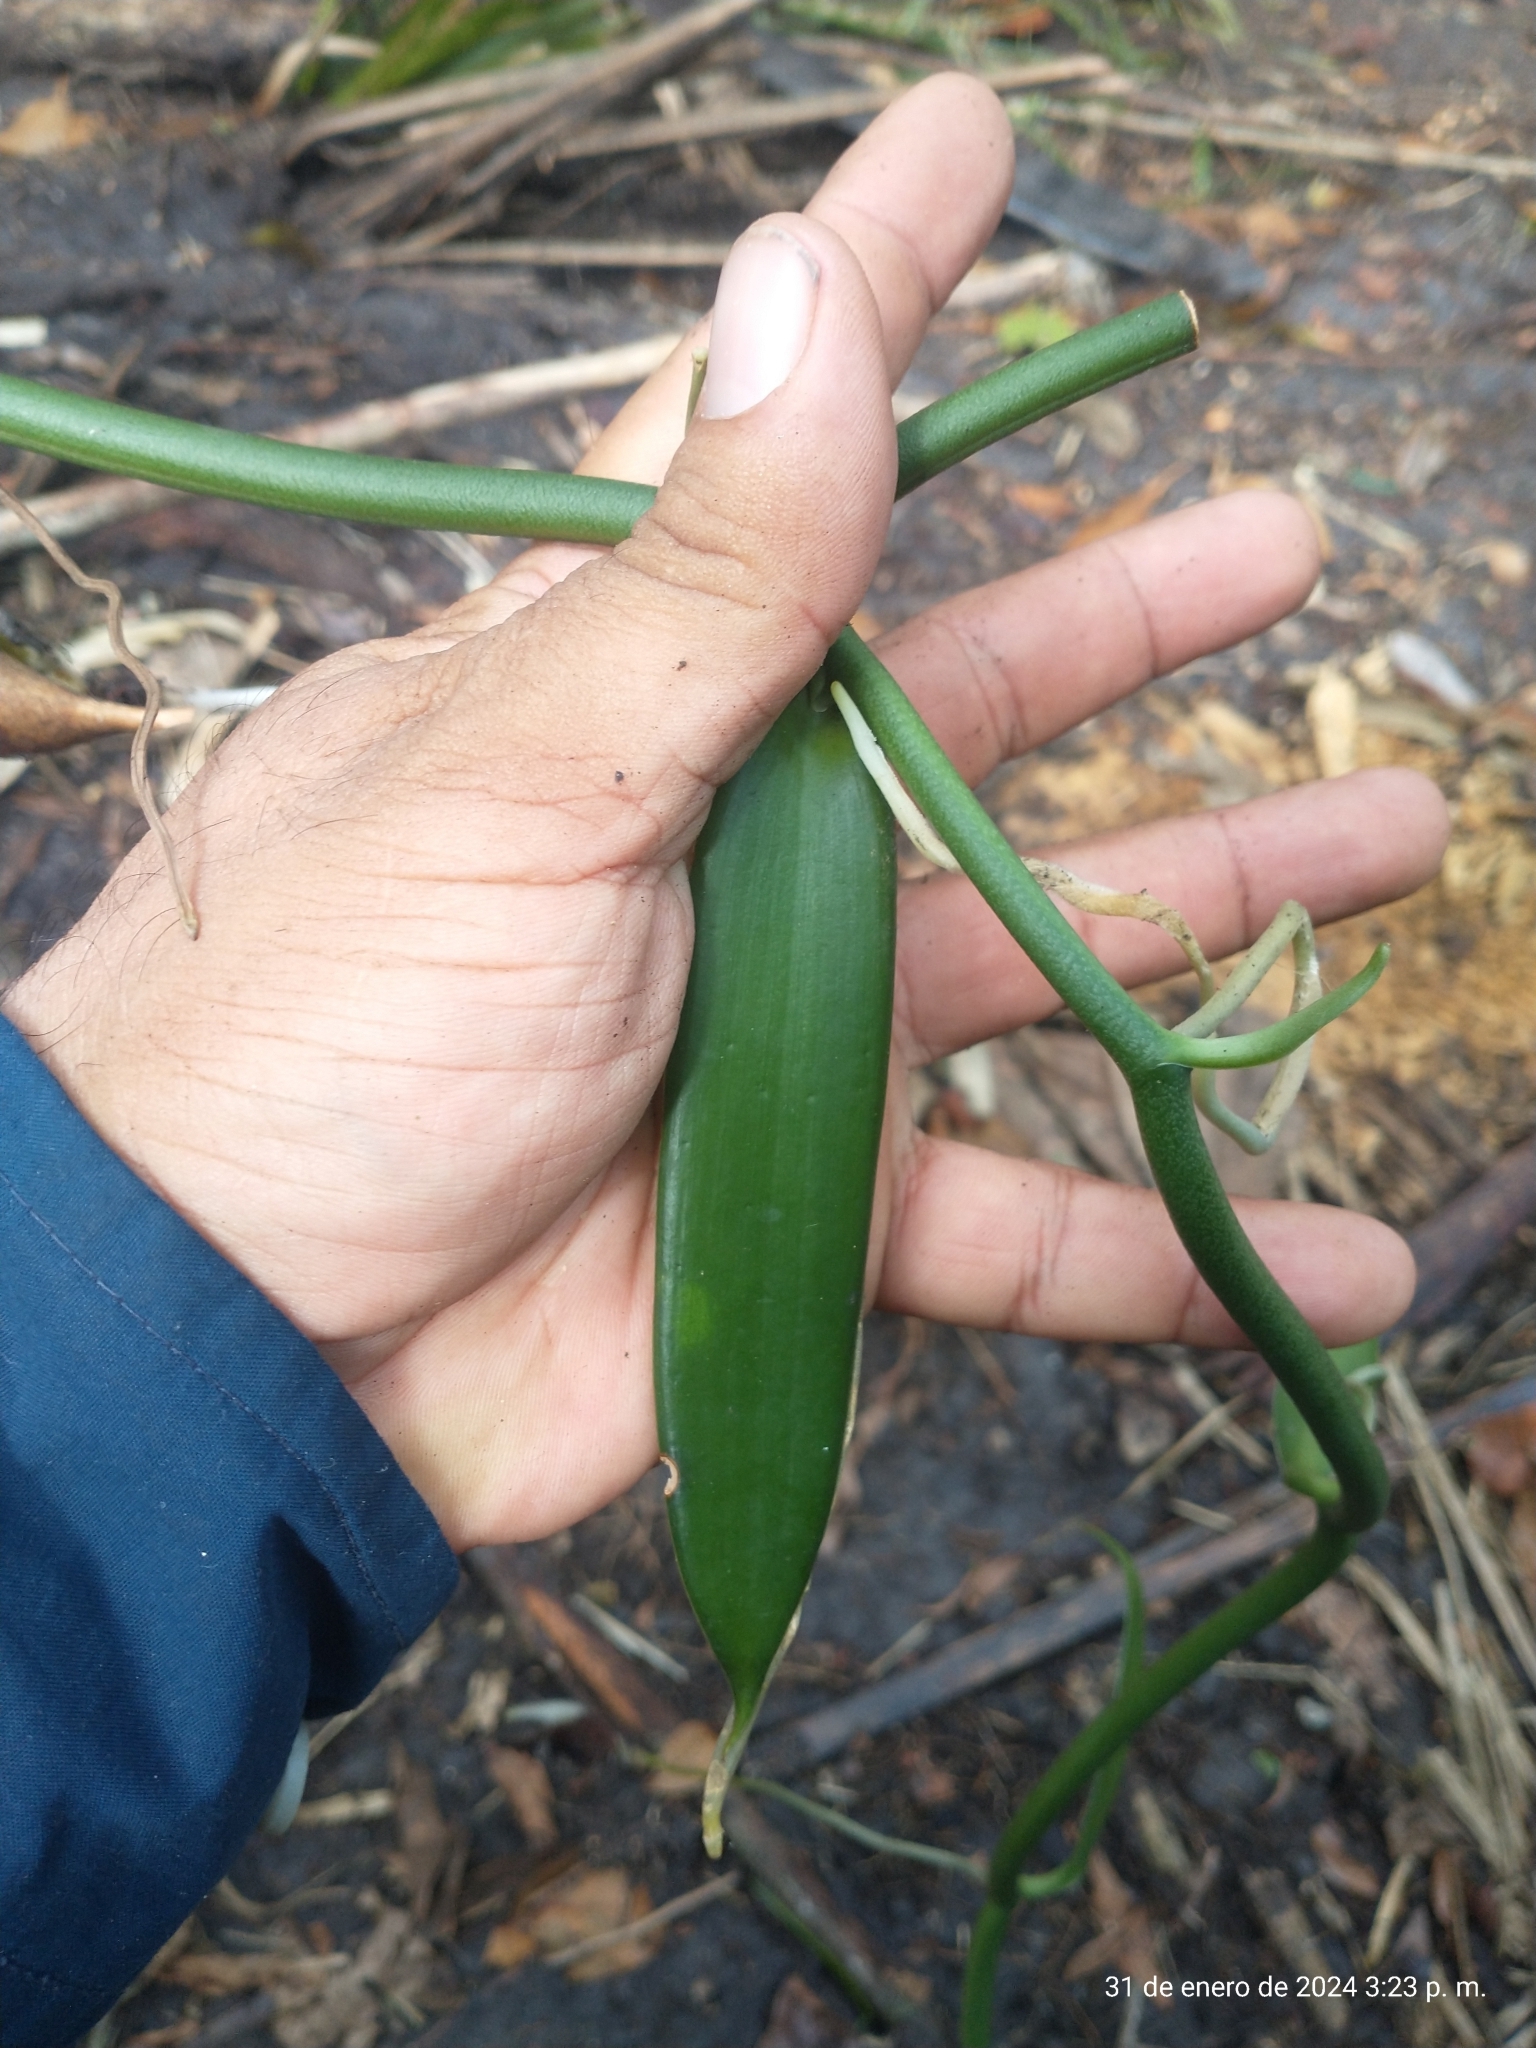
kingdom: Plantae
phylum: Tracheophyta
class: Liliopsida
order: Asparagales
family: Orchidaceae
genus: Vanilla
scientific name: Vanilla planifolia
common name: Vanilla
